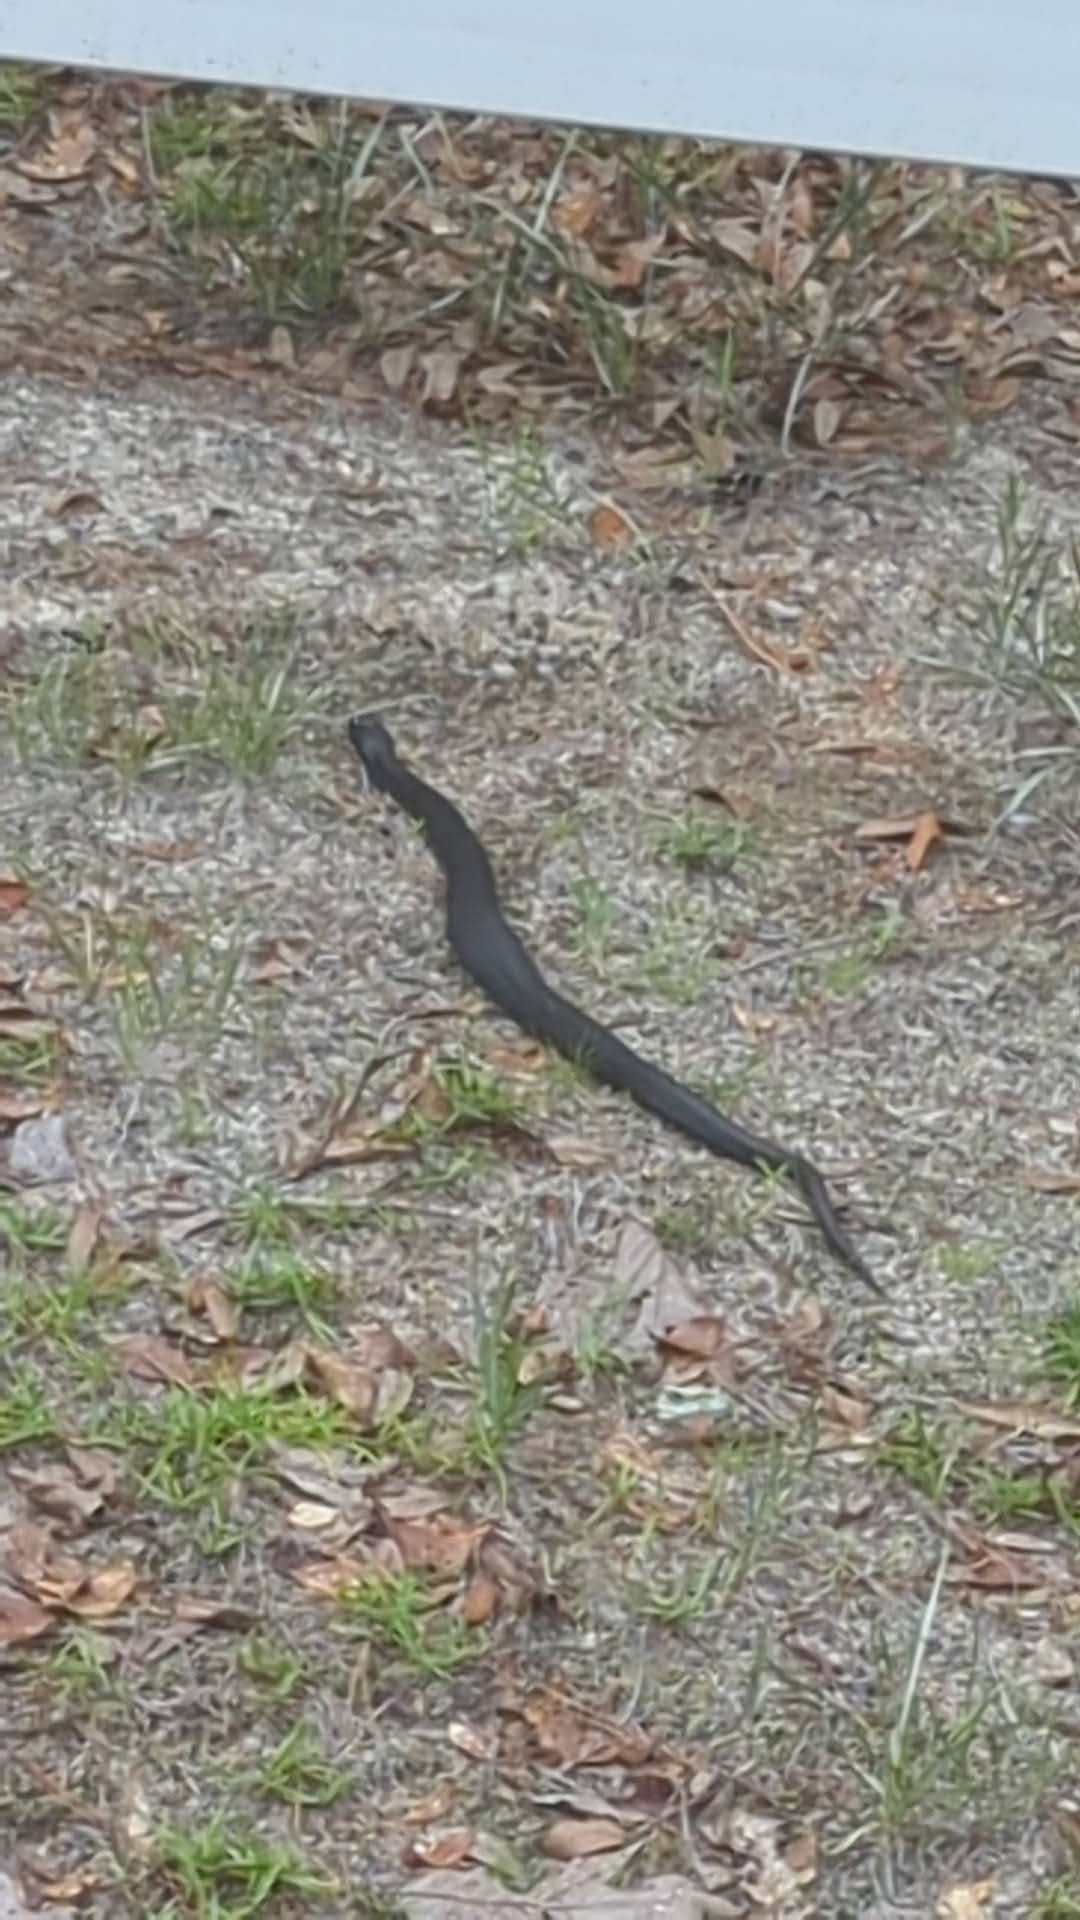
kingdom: Animalia
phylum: Chordata
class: Squamata
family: Colubridae
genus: Heterodon
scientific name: Heterodon platirhinos
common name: Eastern hognose snake
